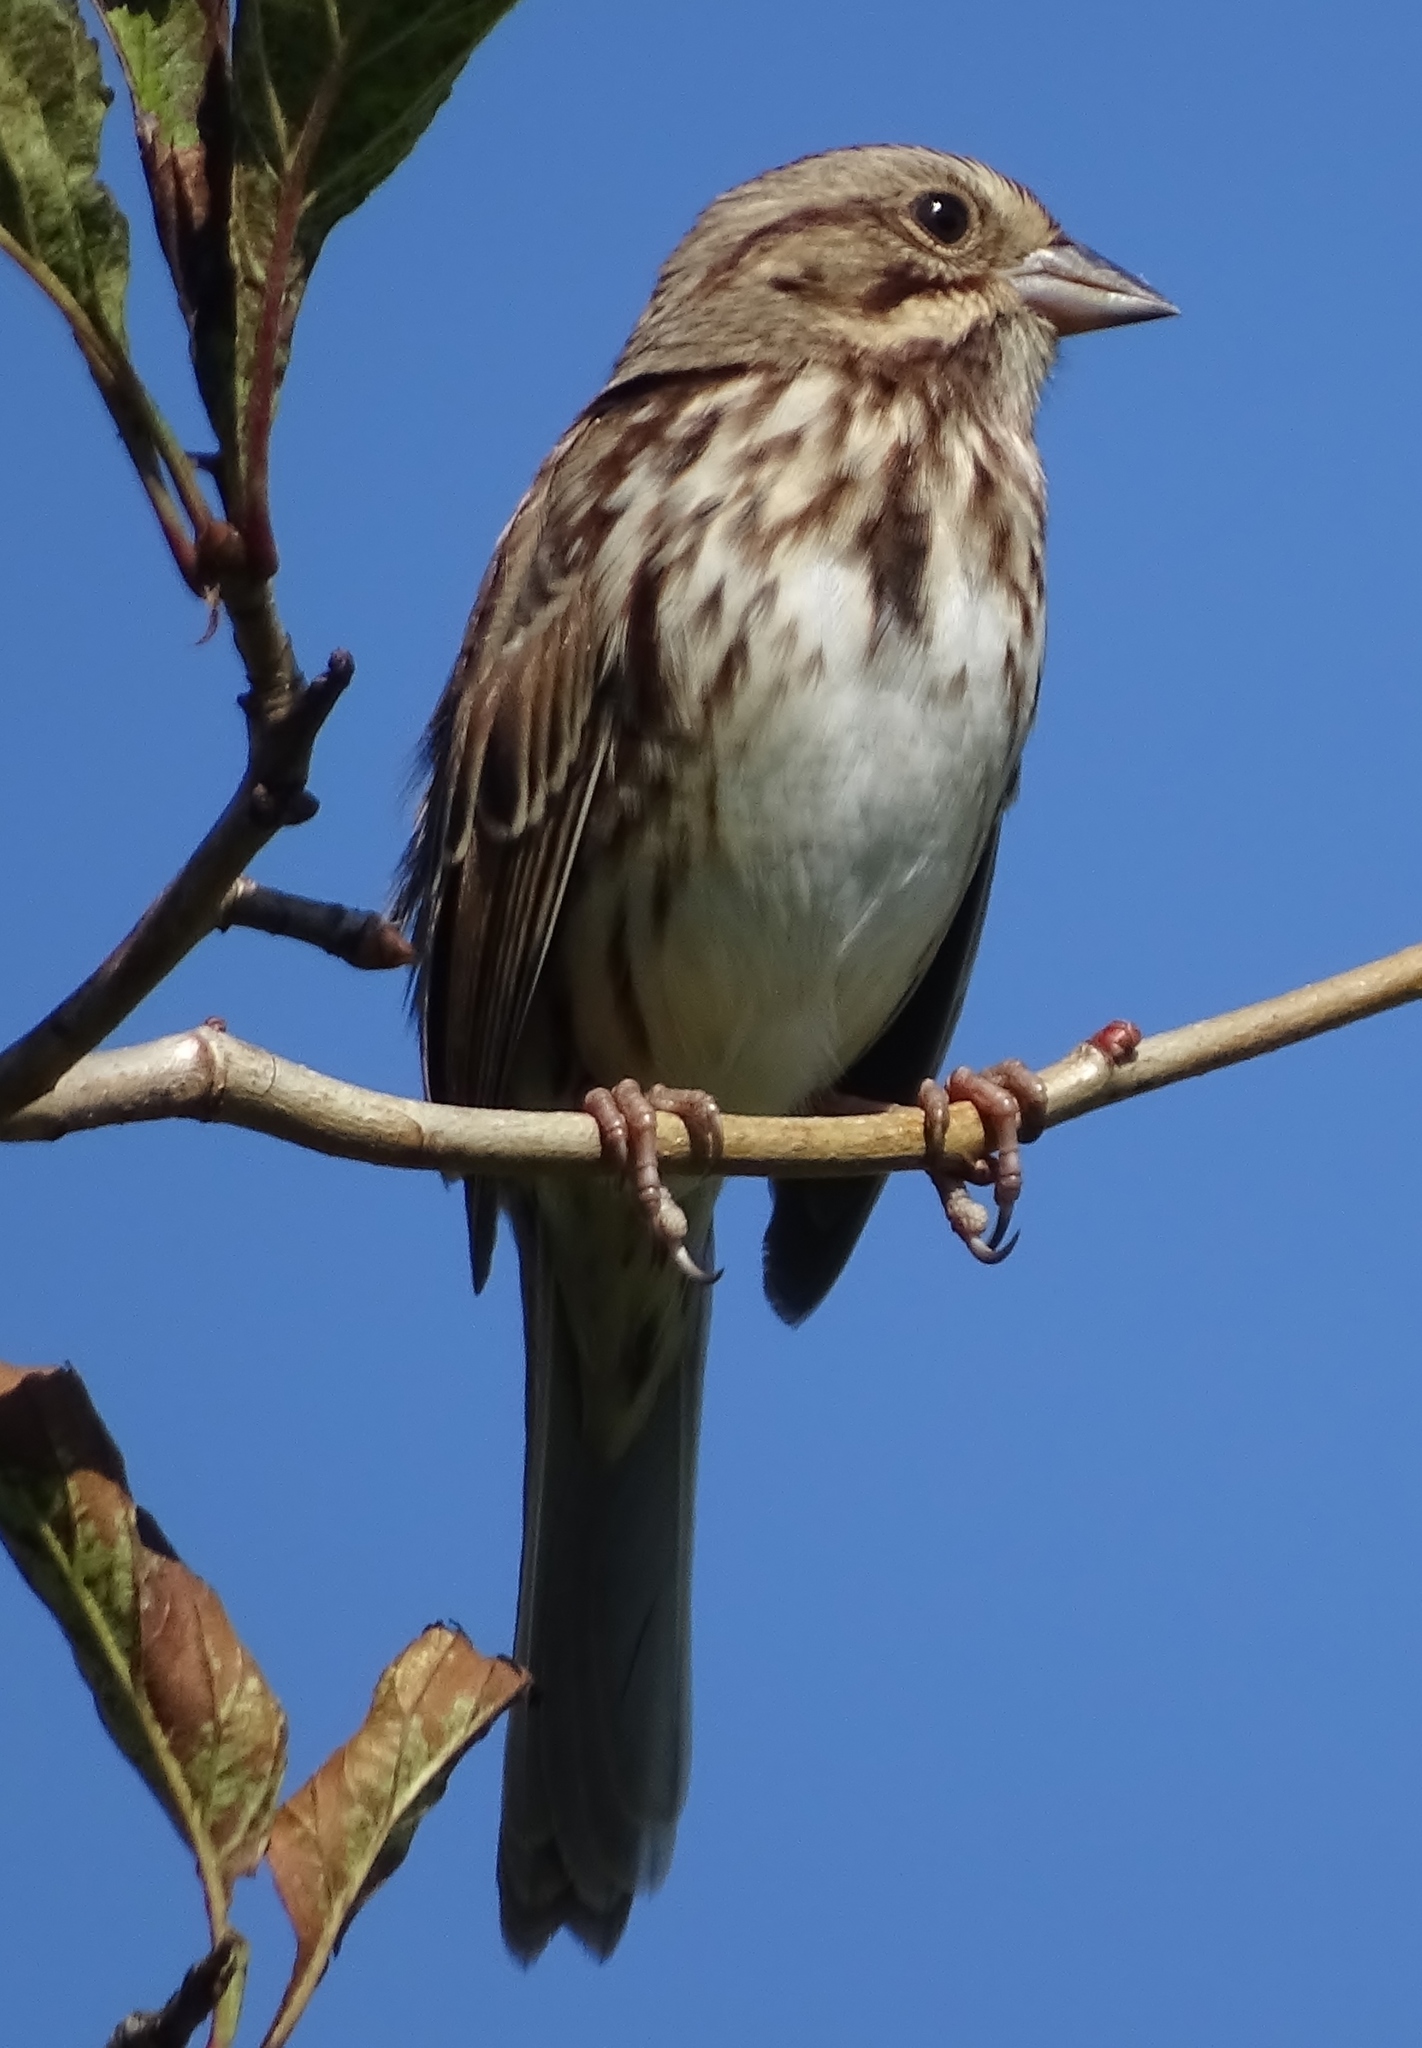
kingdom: Animalia
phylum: Chordata
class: Aves
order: Passeriformes
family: Passerellidae
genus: Melospiza
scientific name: Melospiza melodia
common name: Song sparrow
